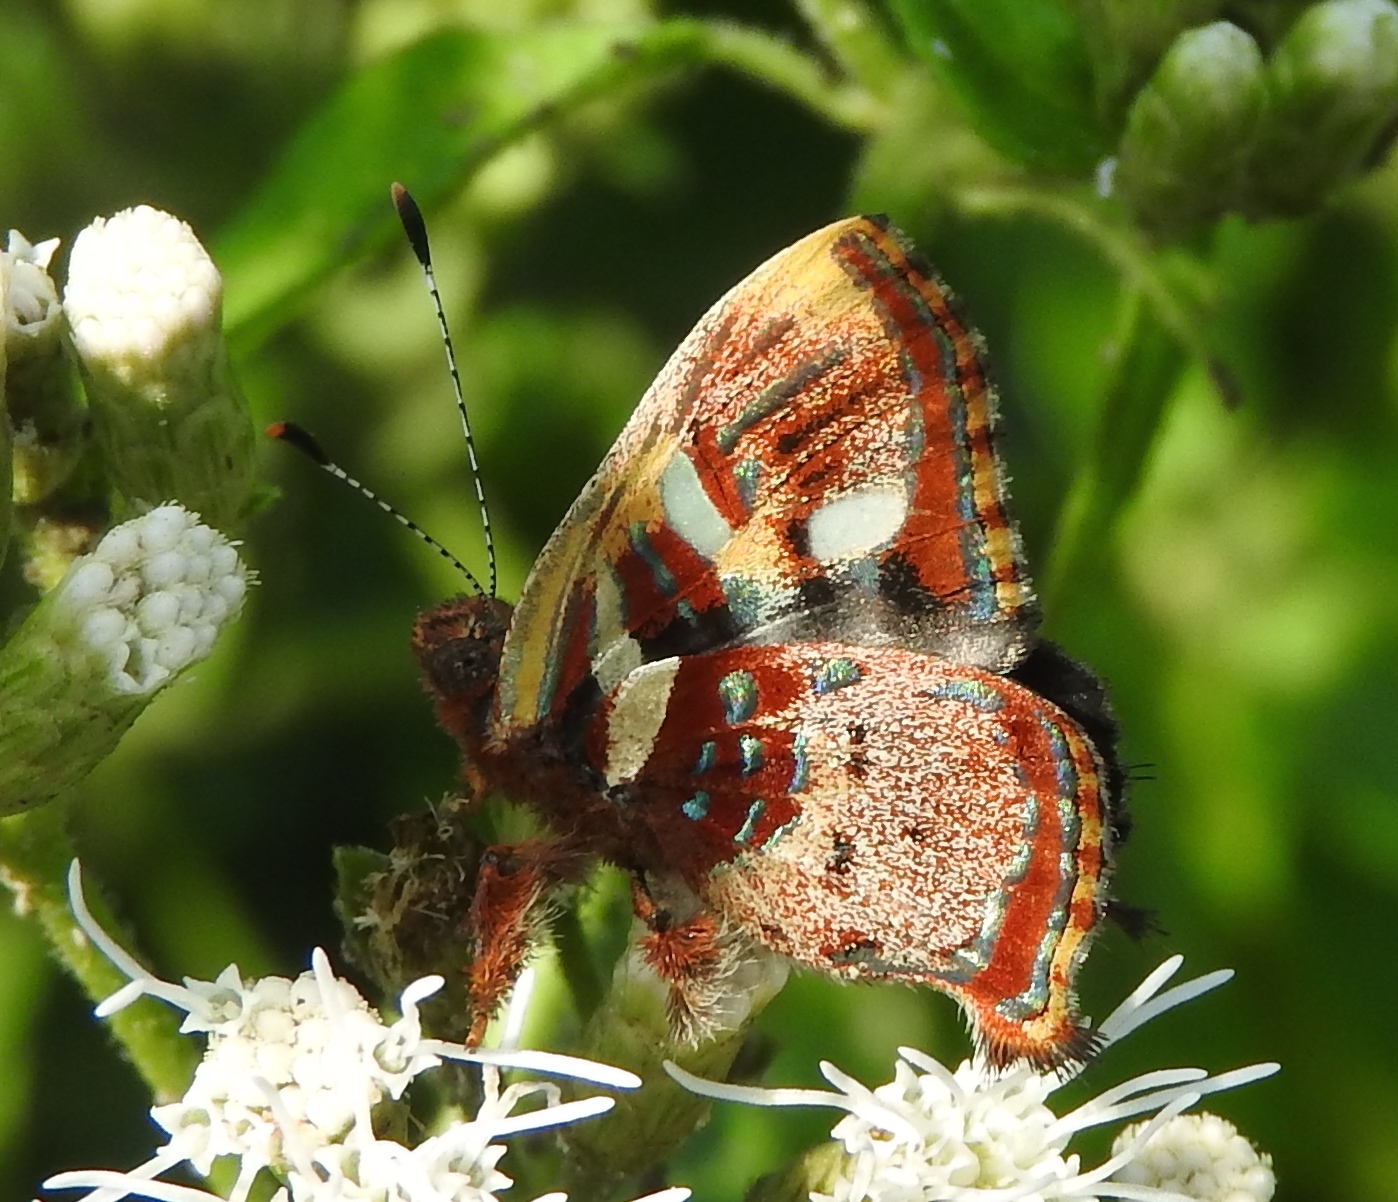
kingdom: Animalia
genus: Anteros
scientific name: Anteros carausius
